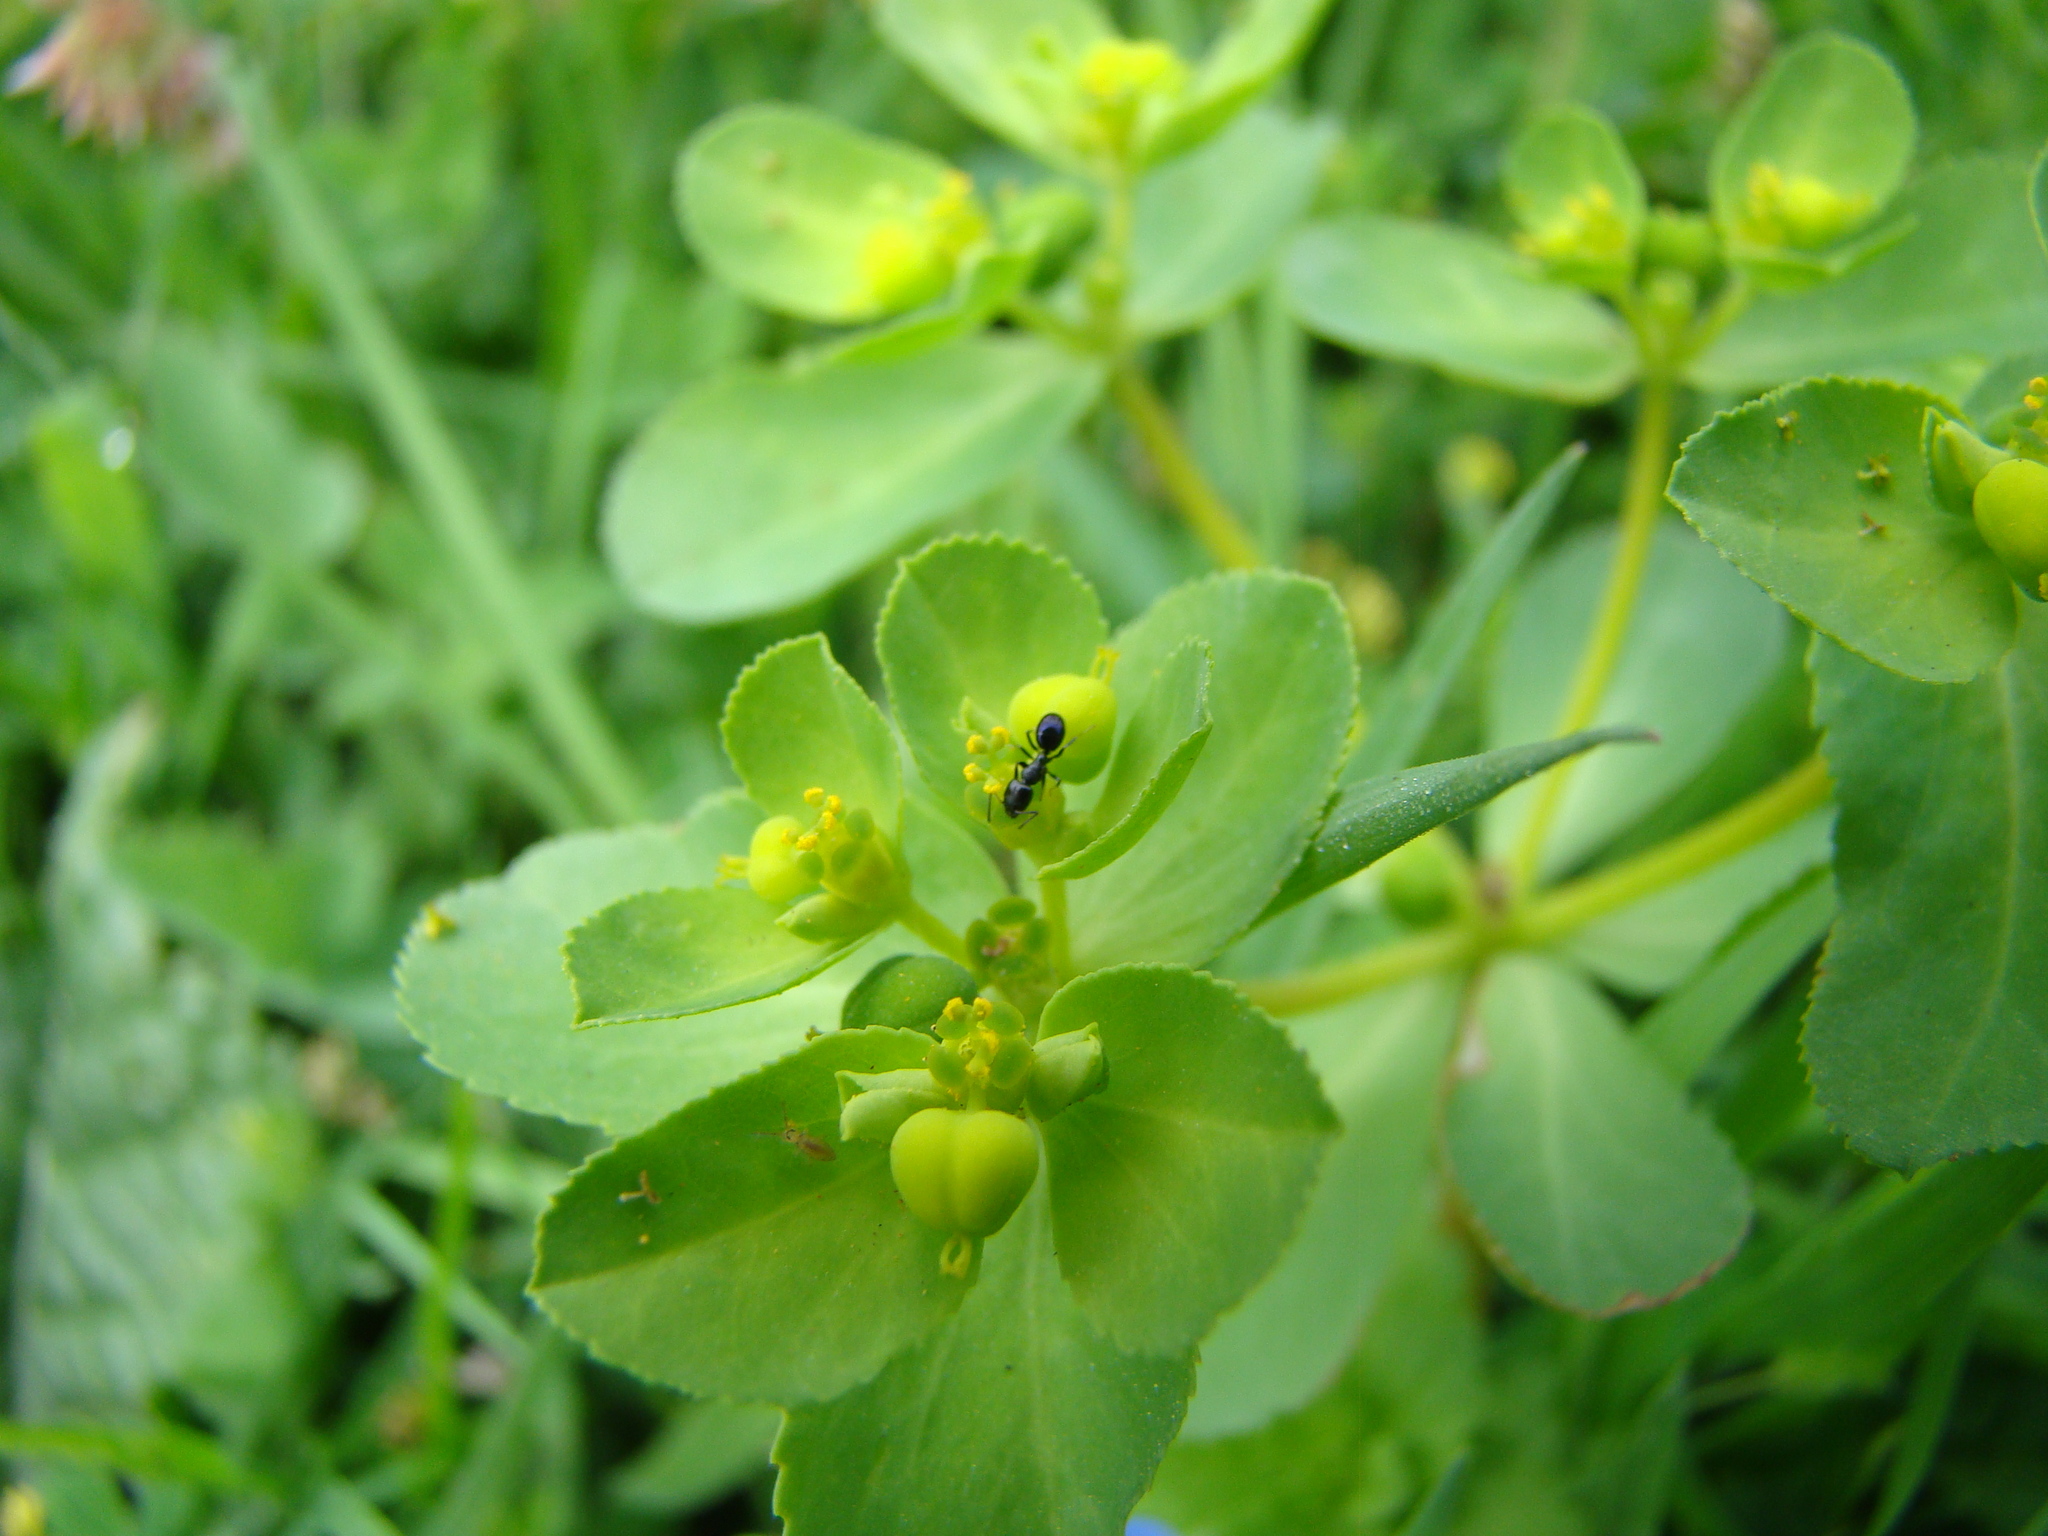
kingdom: Animalia
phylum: Arthropoda
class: Insecta
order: Hymenoptera
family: Formicidae
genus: Technomyrmex
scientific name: Technomyrmex jocosus
